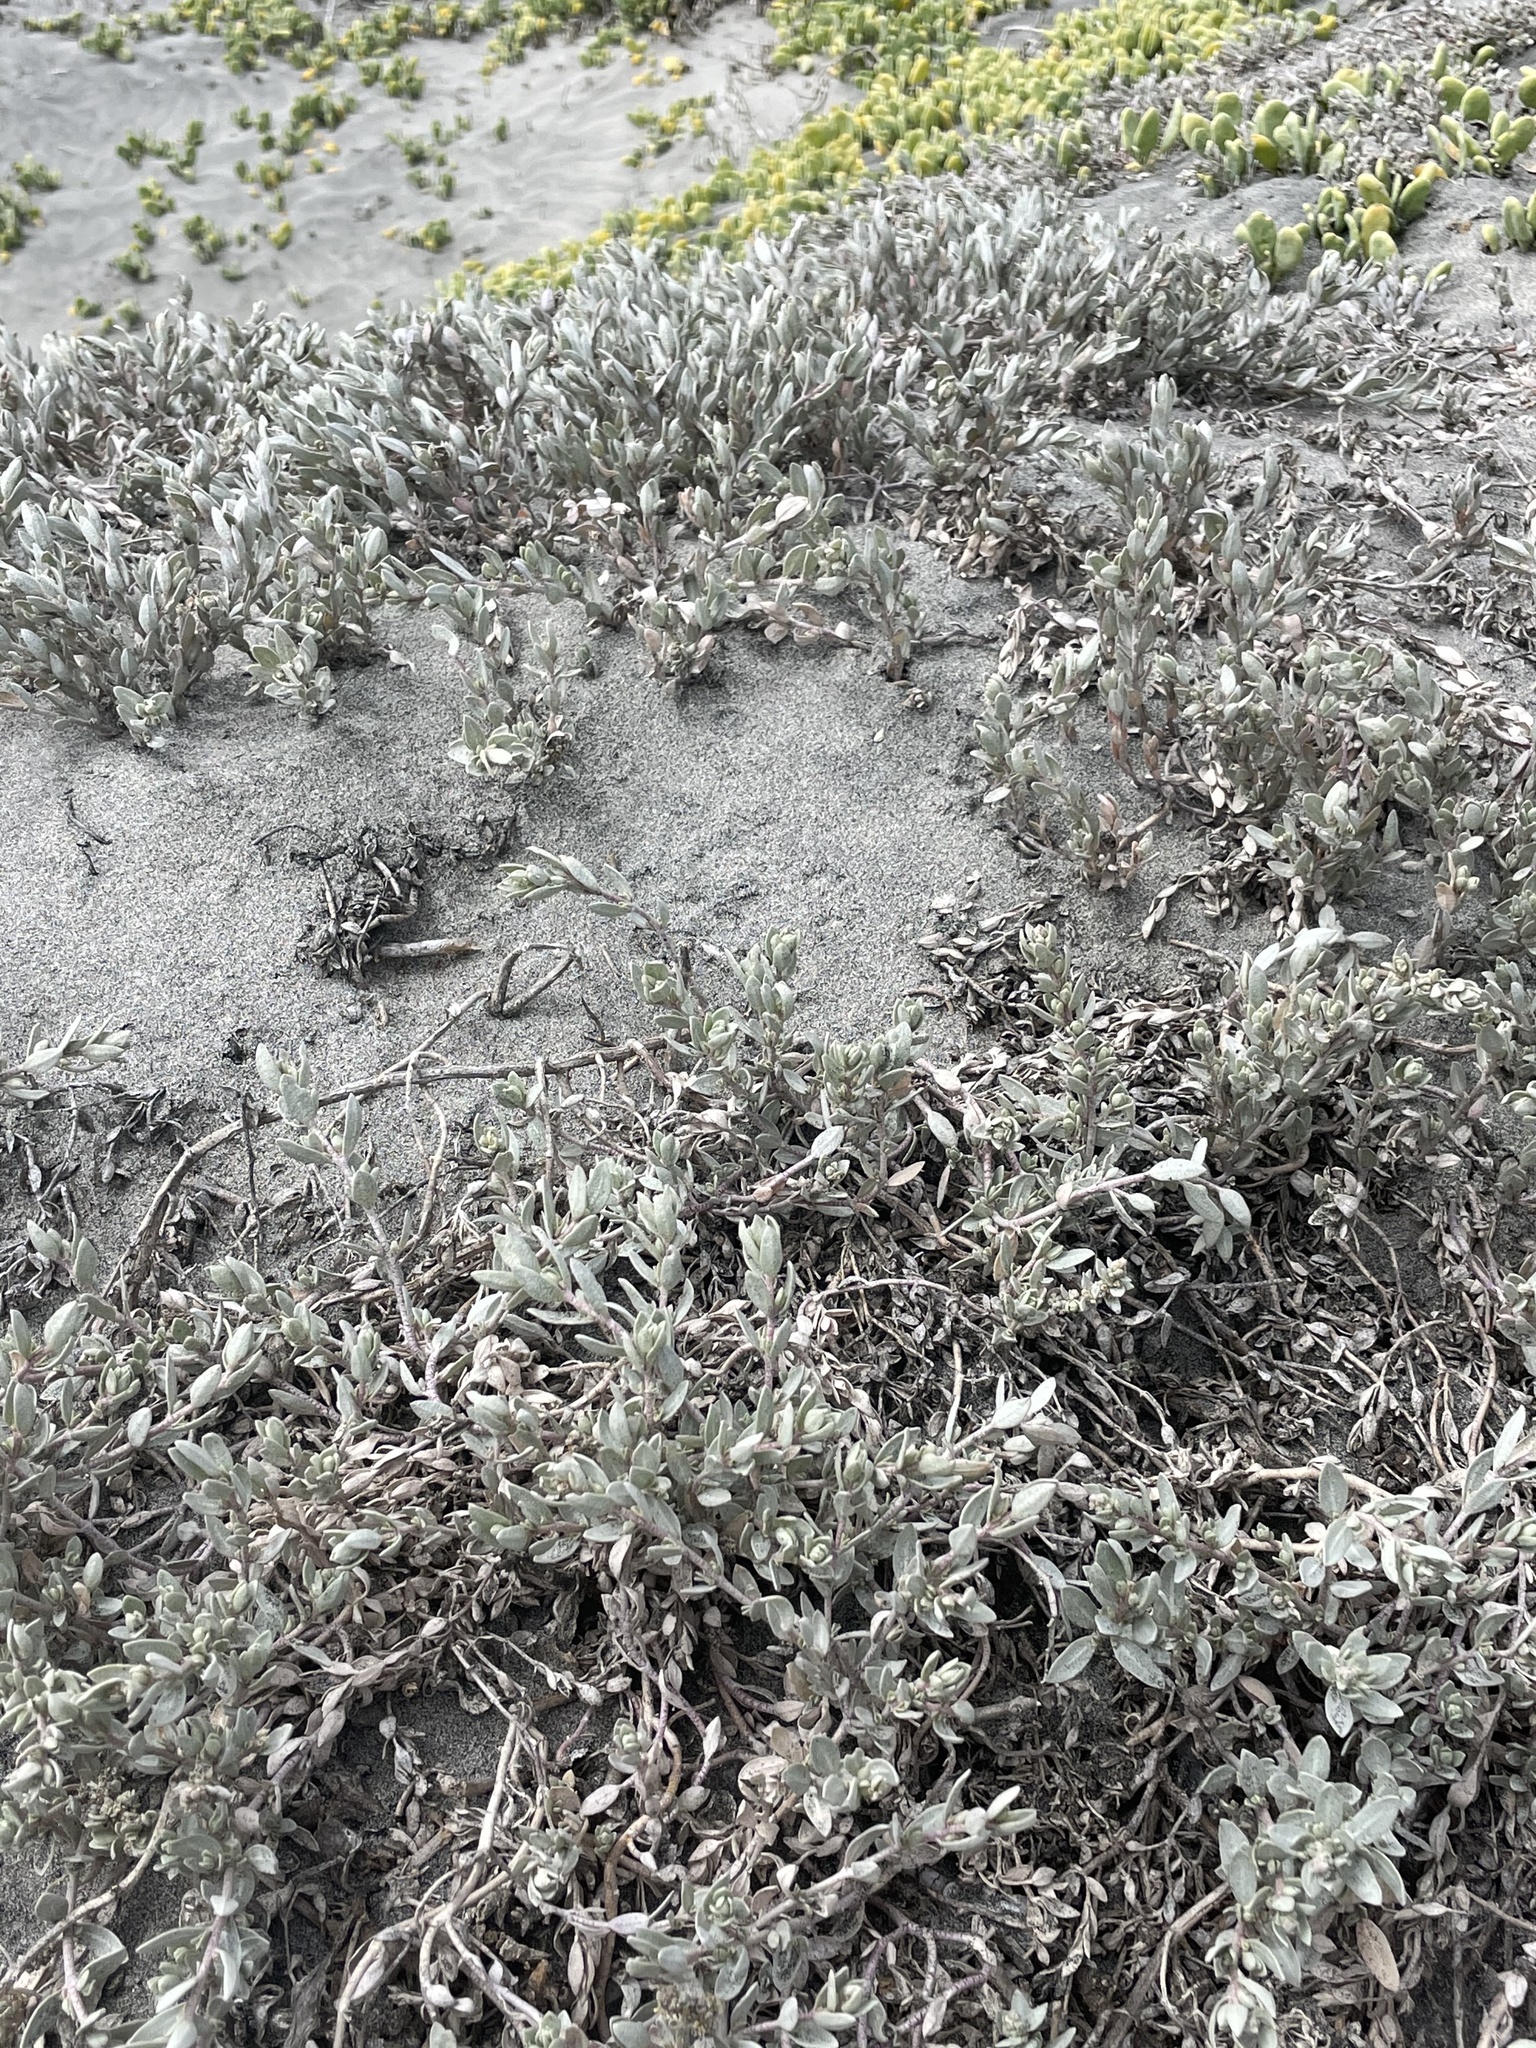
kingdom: Plantae
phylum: Tracheophyta
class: Magnoliopsida
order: Caryophyllales
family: Amaranthaceae
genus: Atriplex
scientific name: Atriplex watsonii
